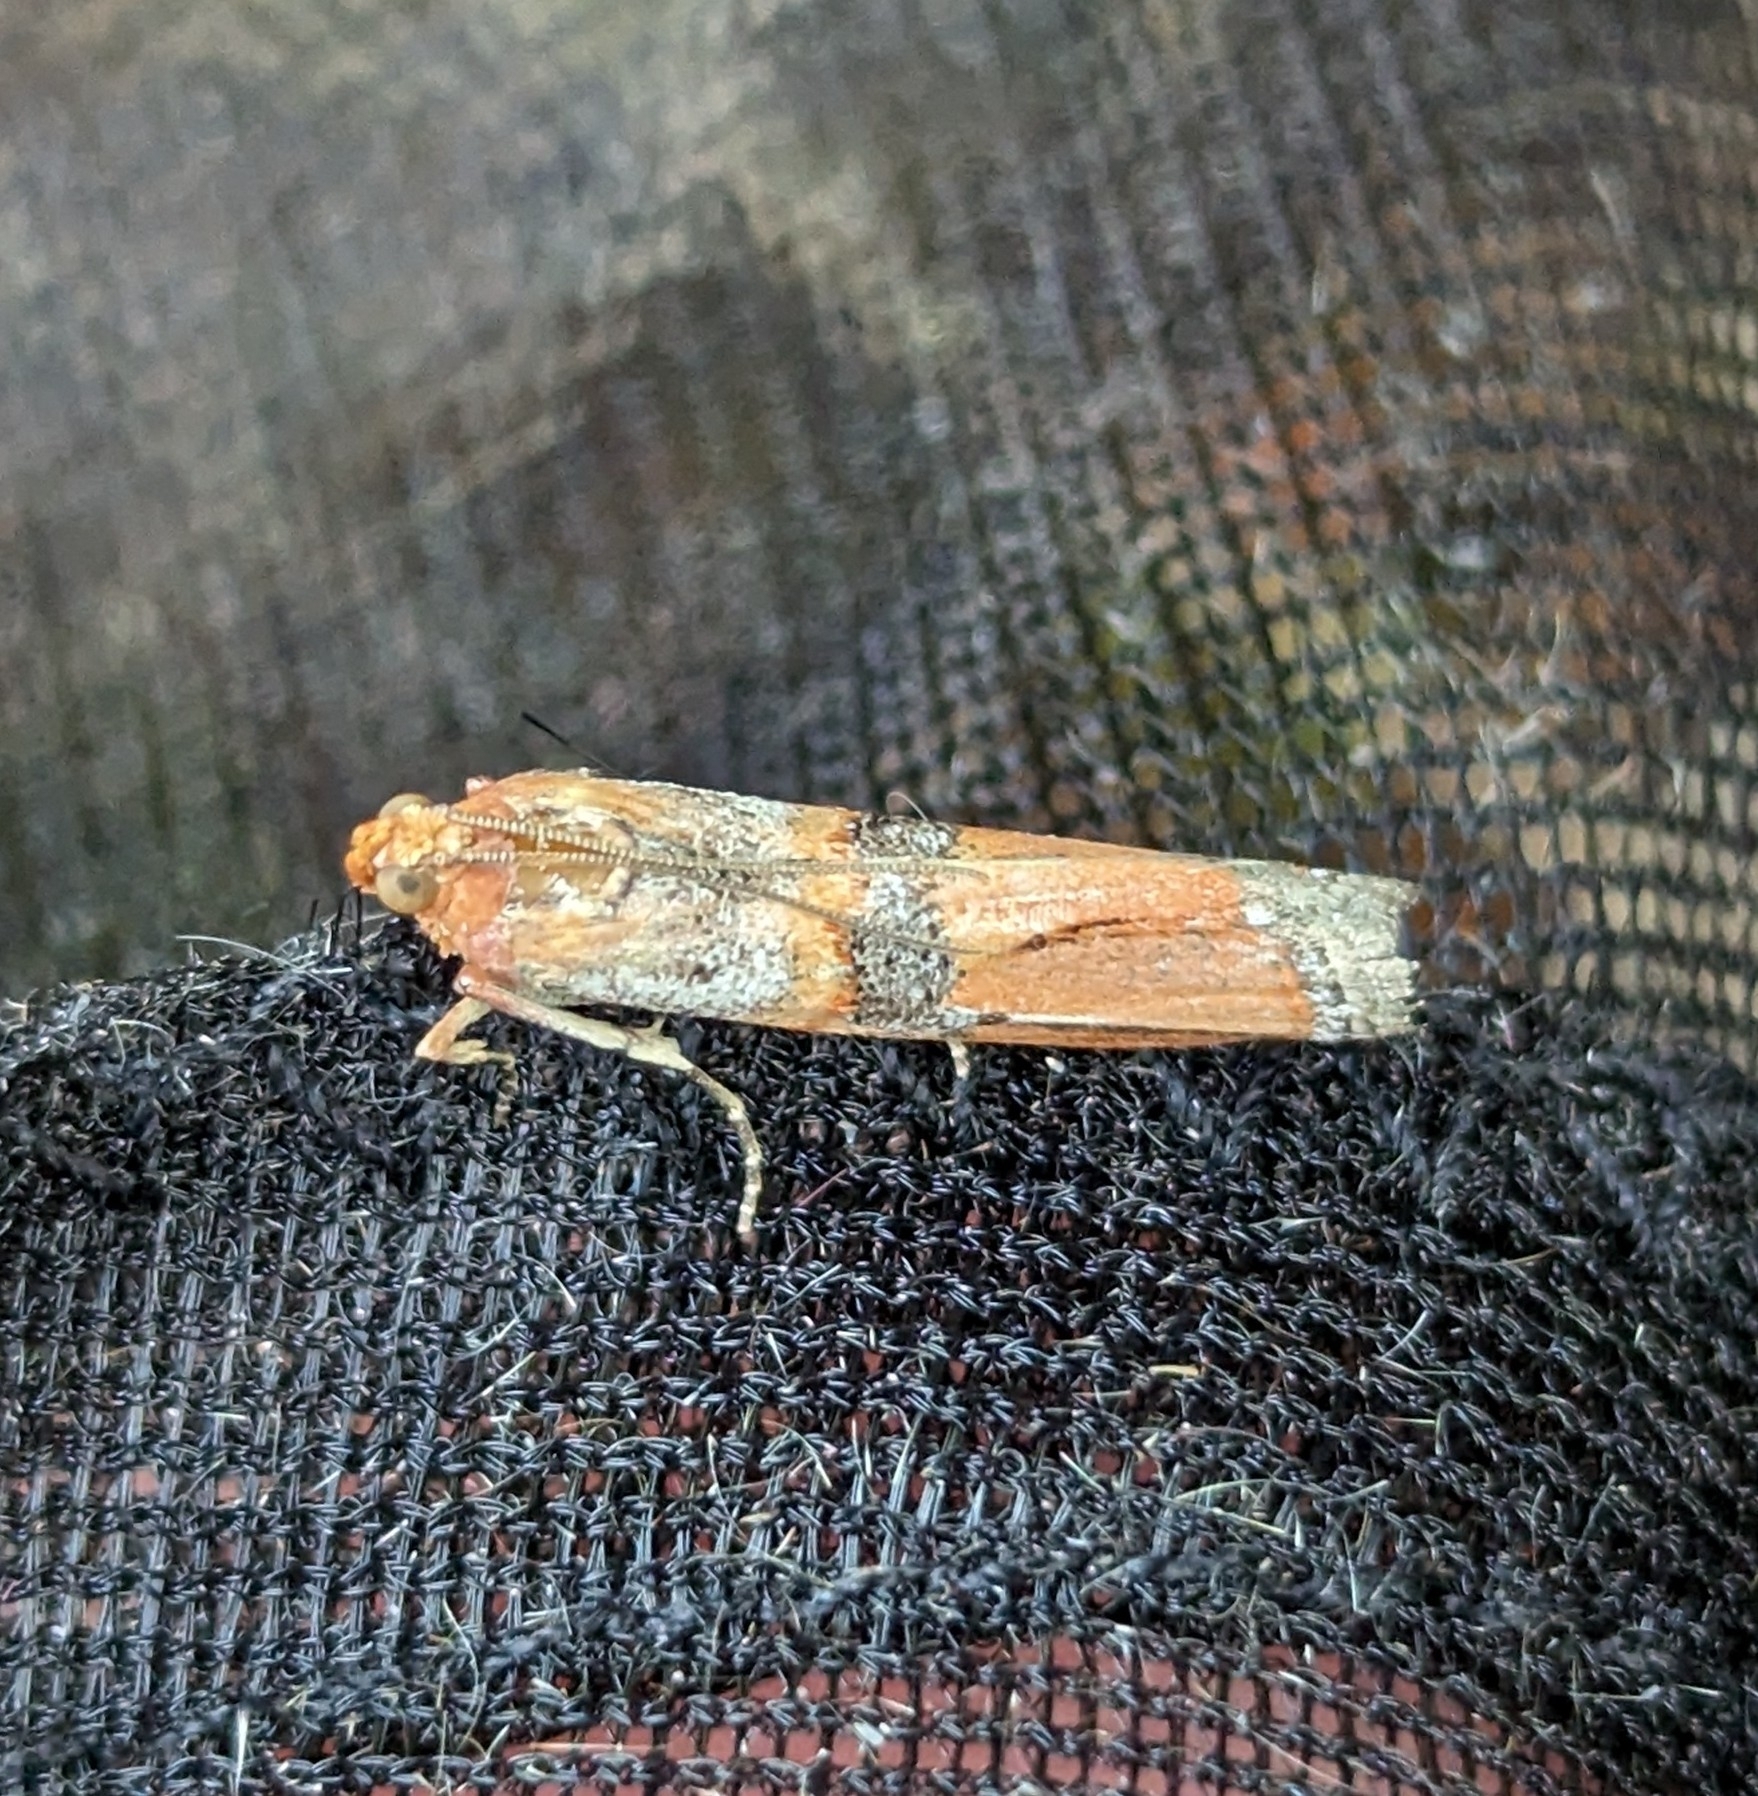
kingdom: Animalia
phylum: Arthropoda
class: Insecta
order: Lepidoptera
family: Pyralidae
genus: Dasypyga
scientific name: Dasypyga alternosquamella
